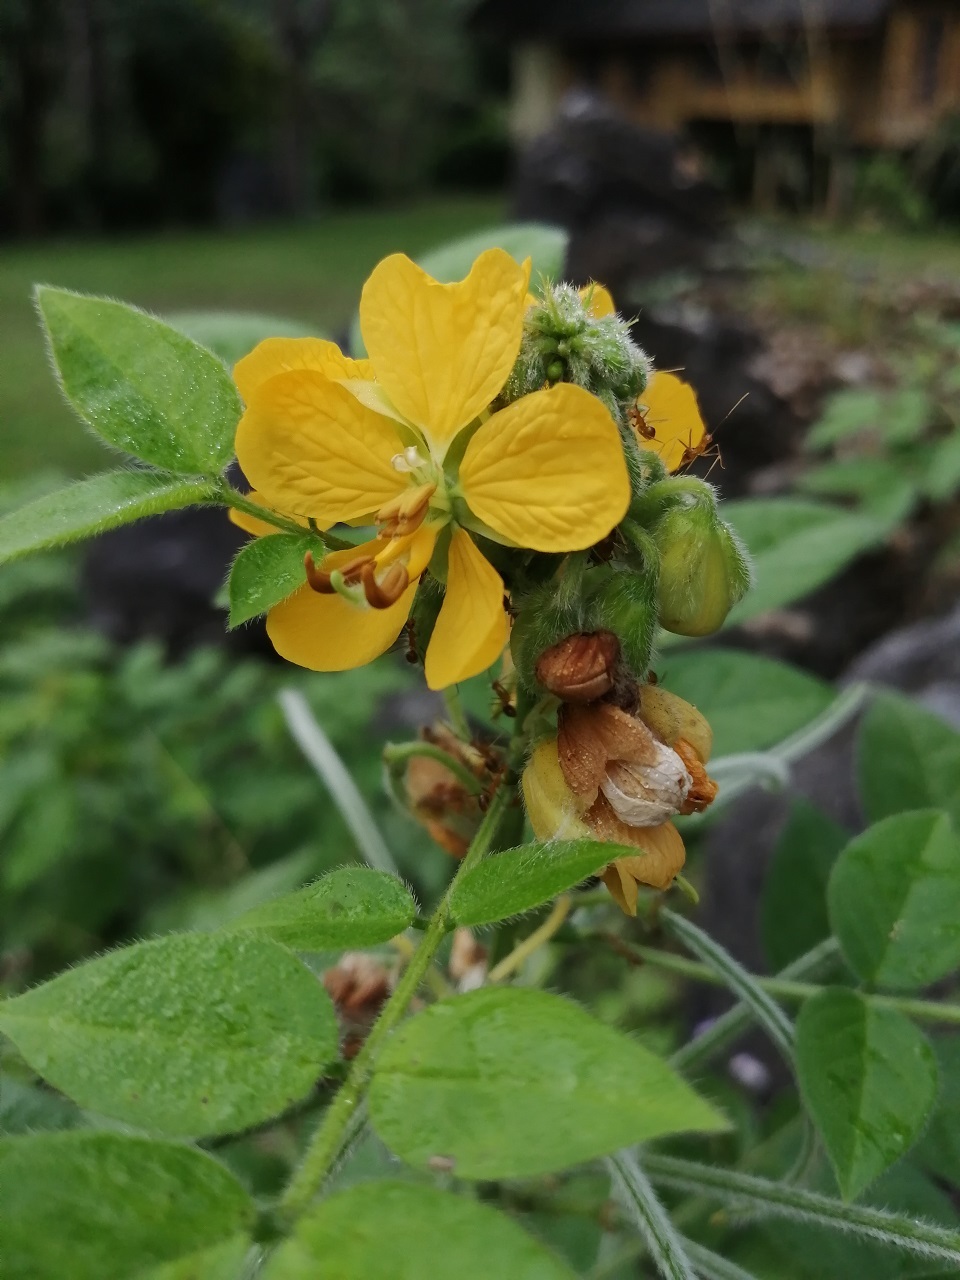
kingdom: Plantae
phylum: Tracheophyta
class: Magnoliopsida
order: Fabales
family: Fabaceae
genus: Senna
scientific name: Senna hirsuta
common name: Woolly senna
